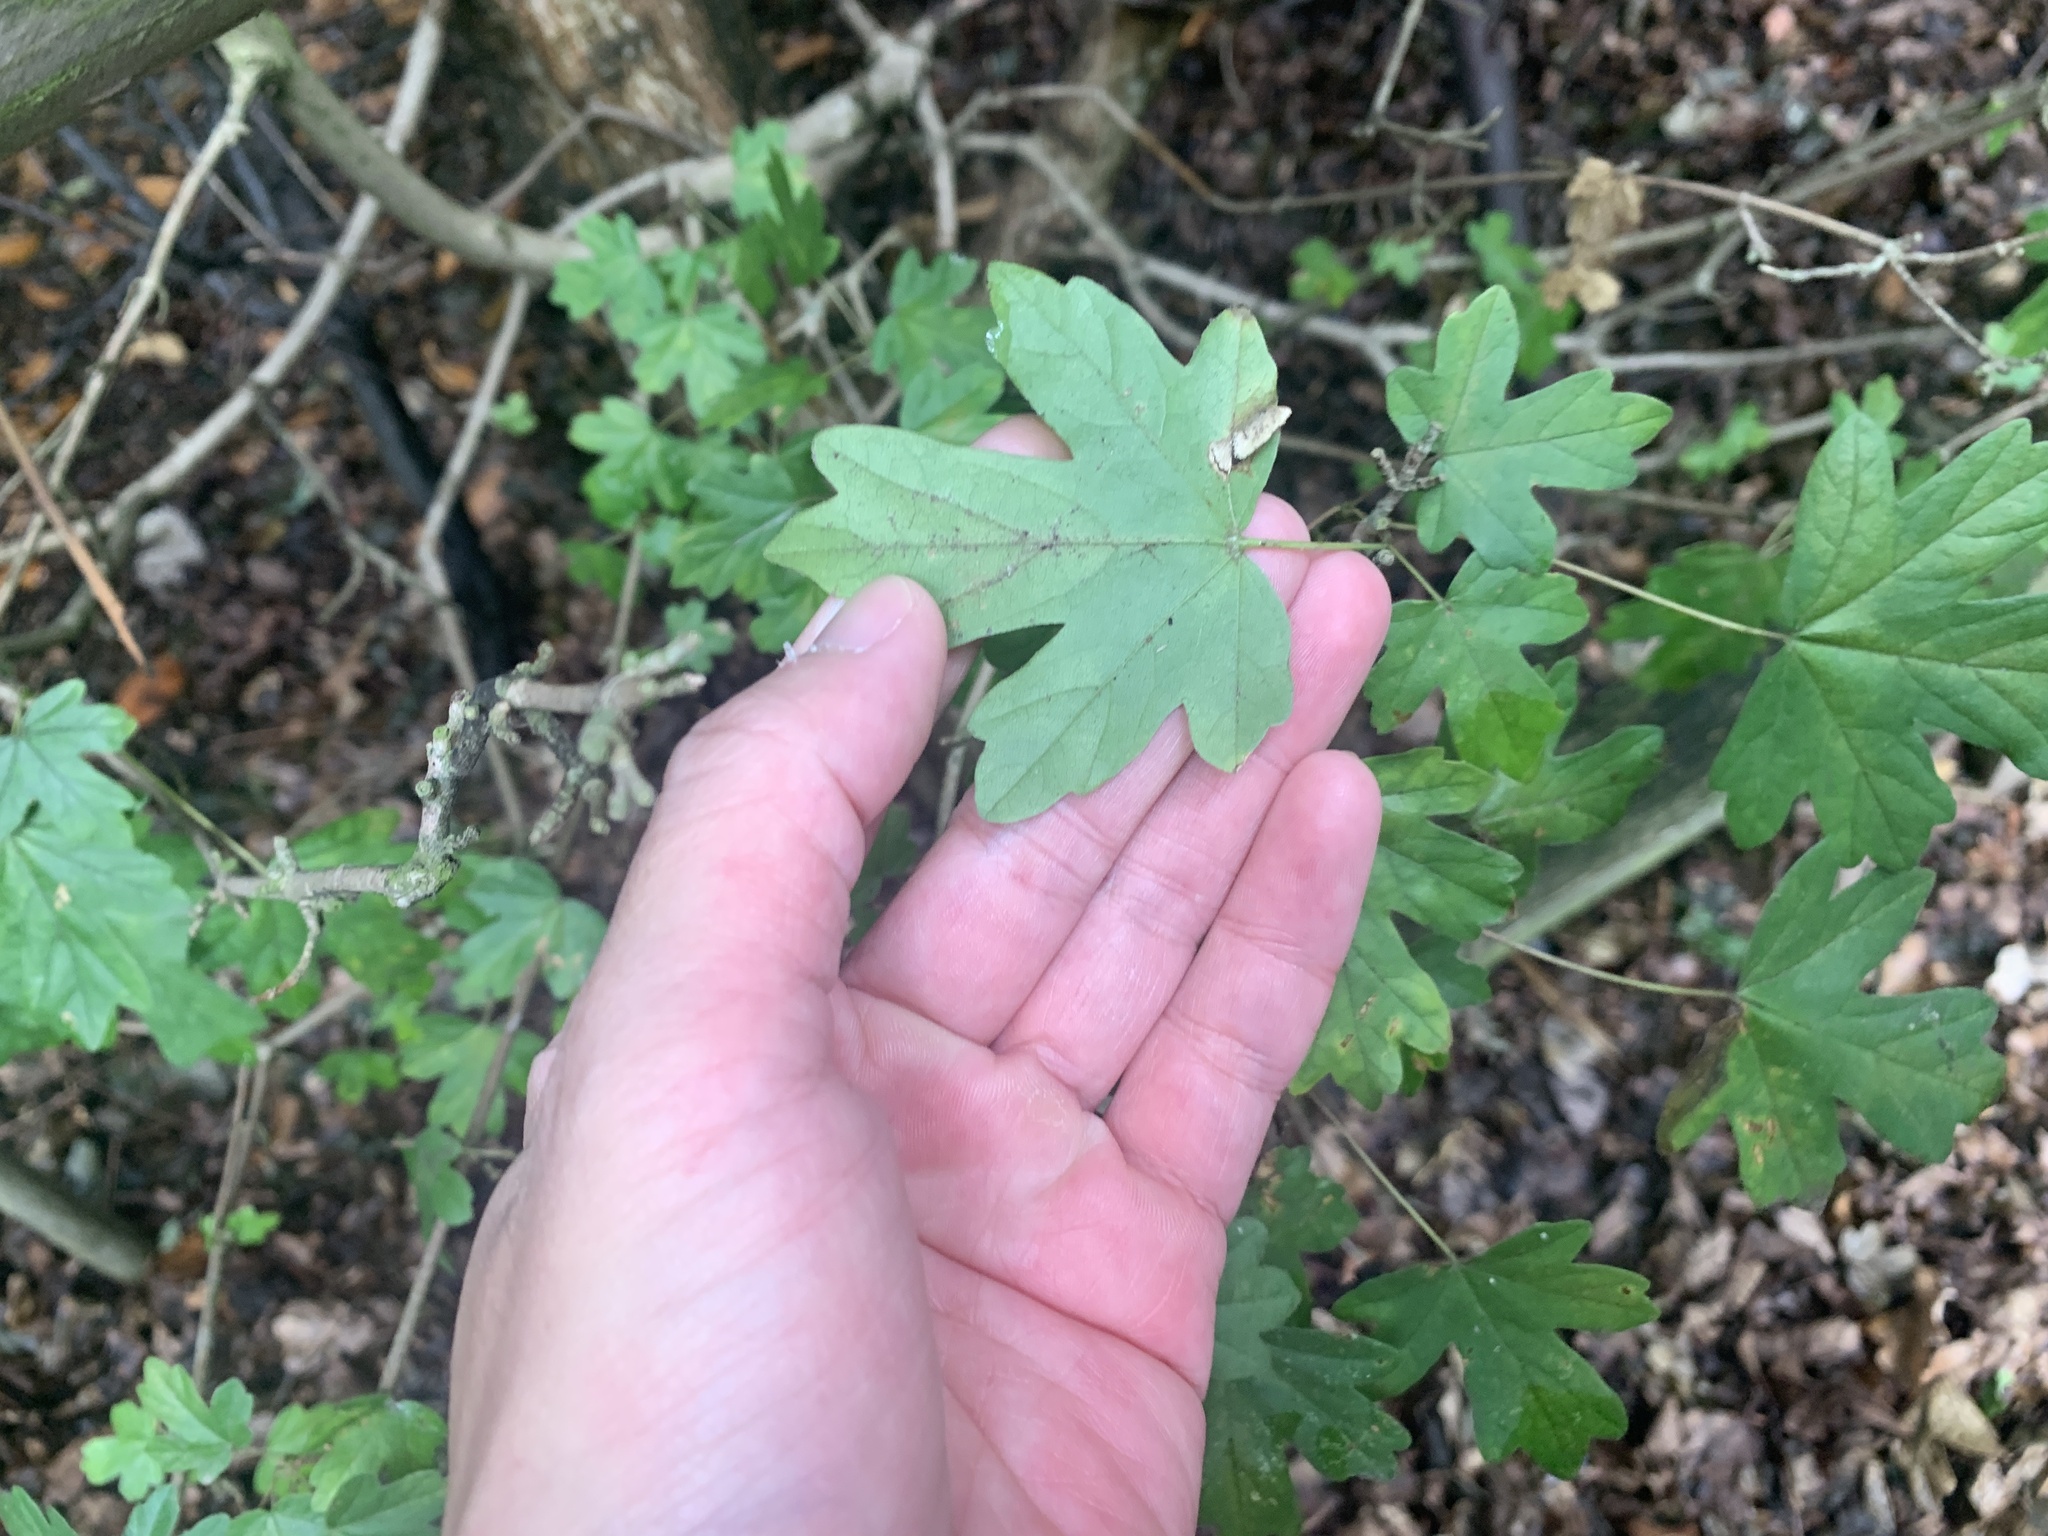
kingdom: Plantae
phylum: Tracheophyta
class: Magnoliopsida
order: Sapindales
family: Sapindaceae
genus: Acer
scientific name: Acer campestre
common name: Field maple
